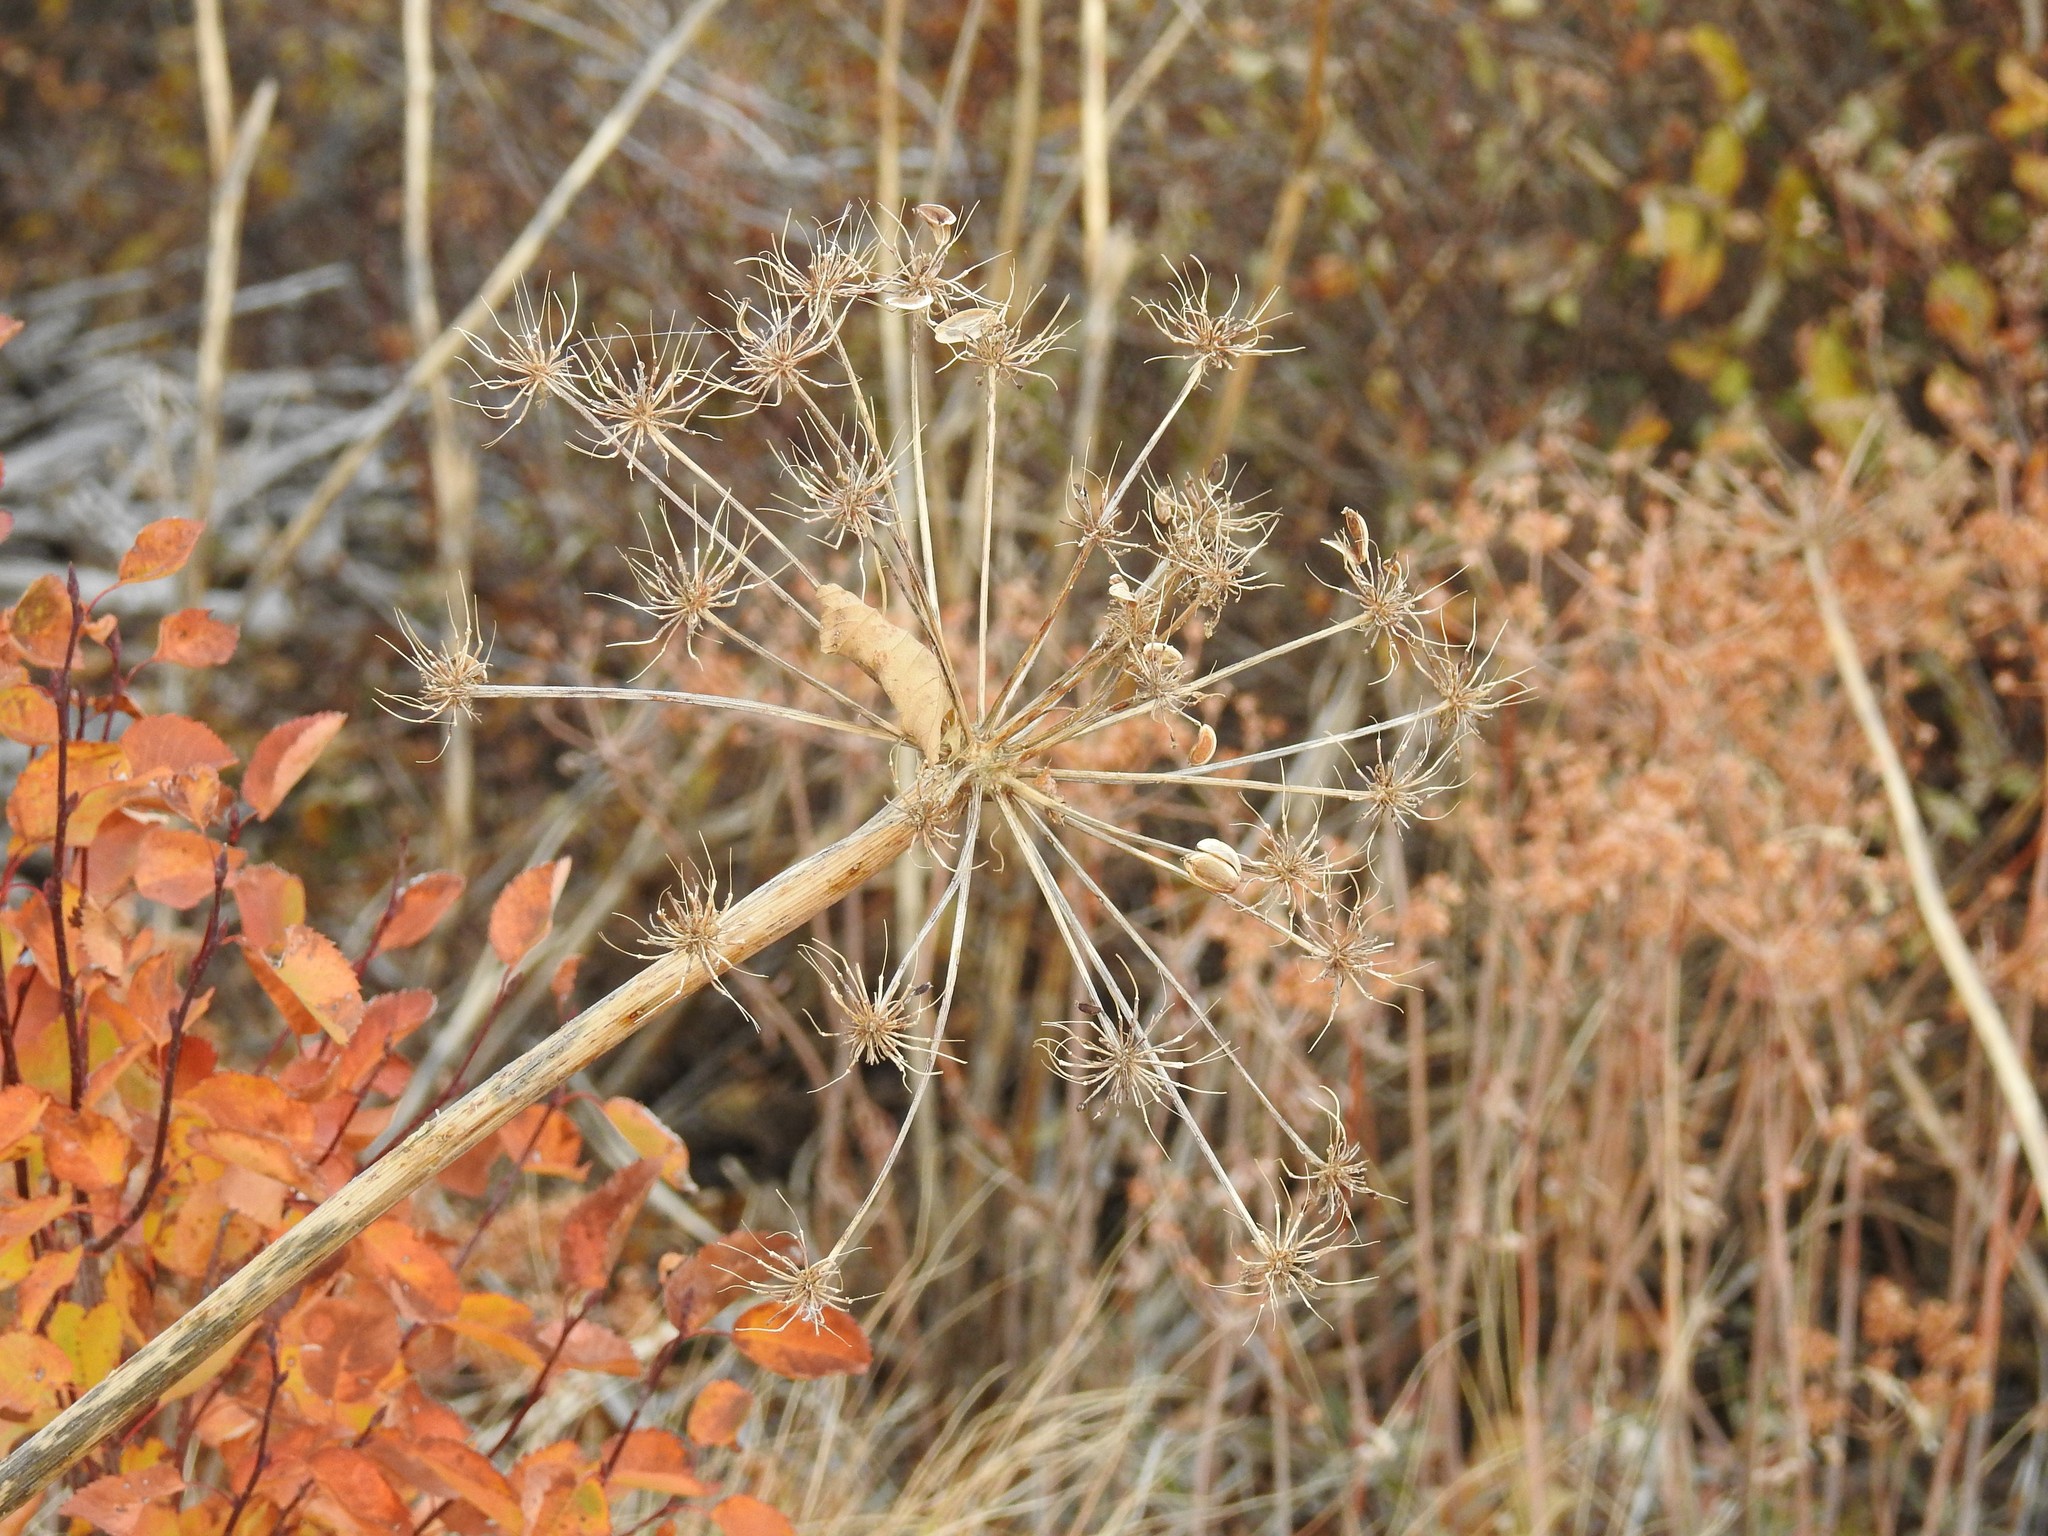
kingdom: Plantae
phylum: Tracheophyta
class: Magnoliopsida
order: Apiales
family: Apiaceae
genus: Lomatium
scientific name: Lomatium multifidum
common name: Carrot-leaved biscuitroot
